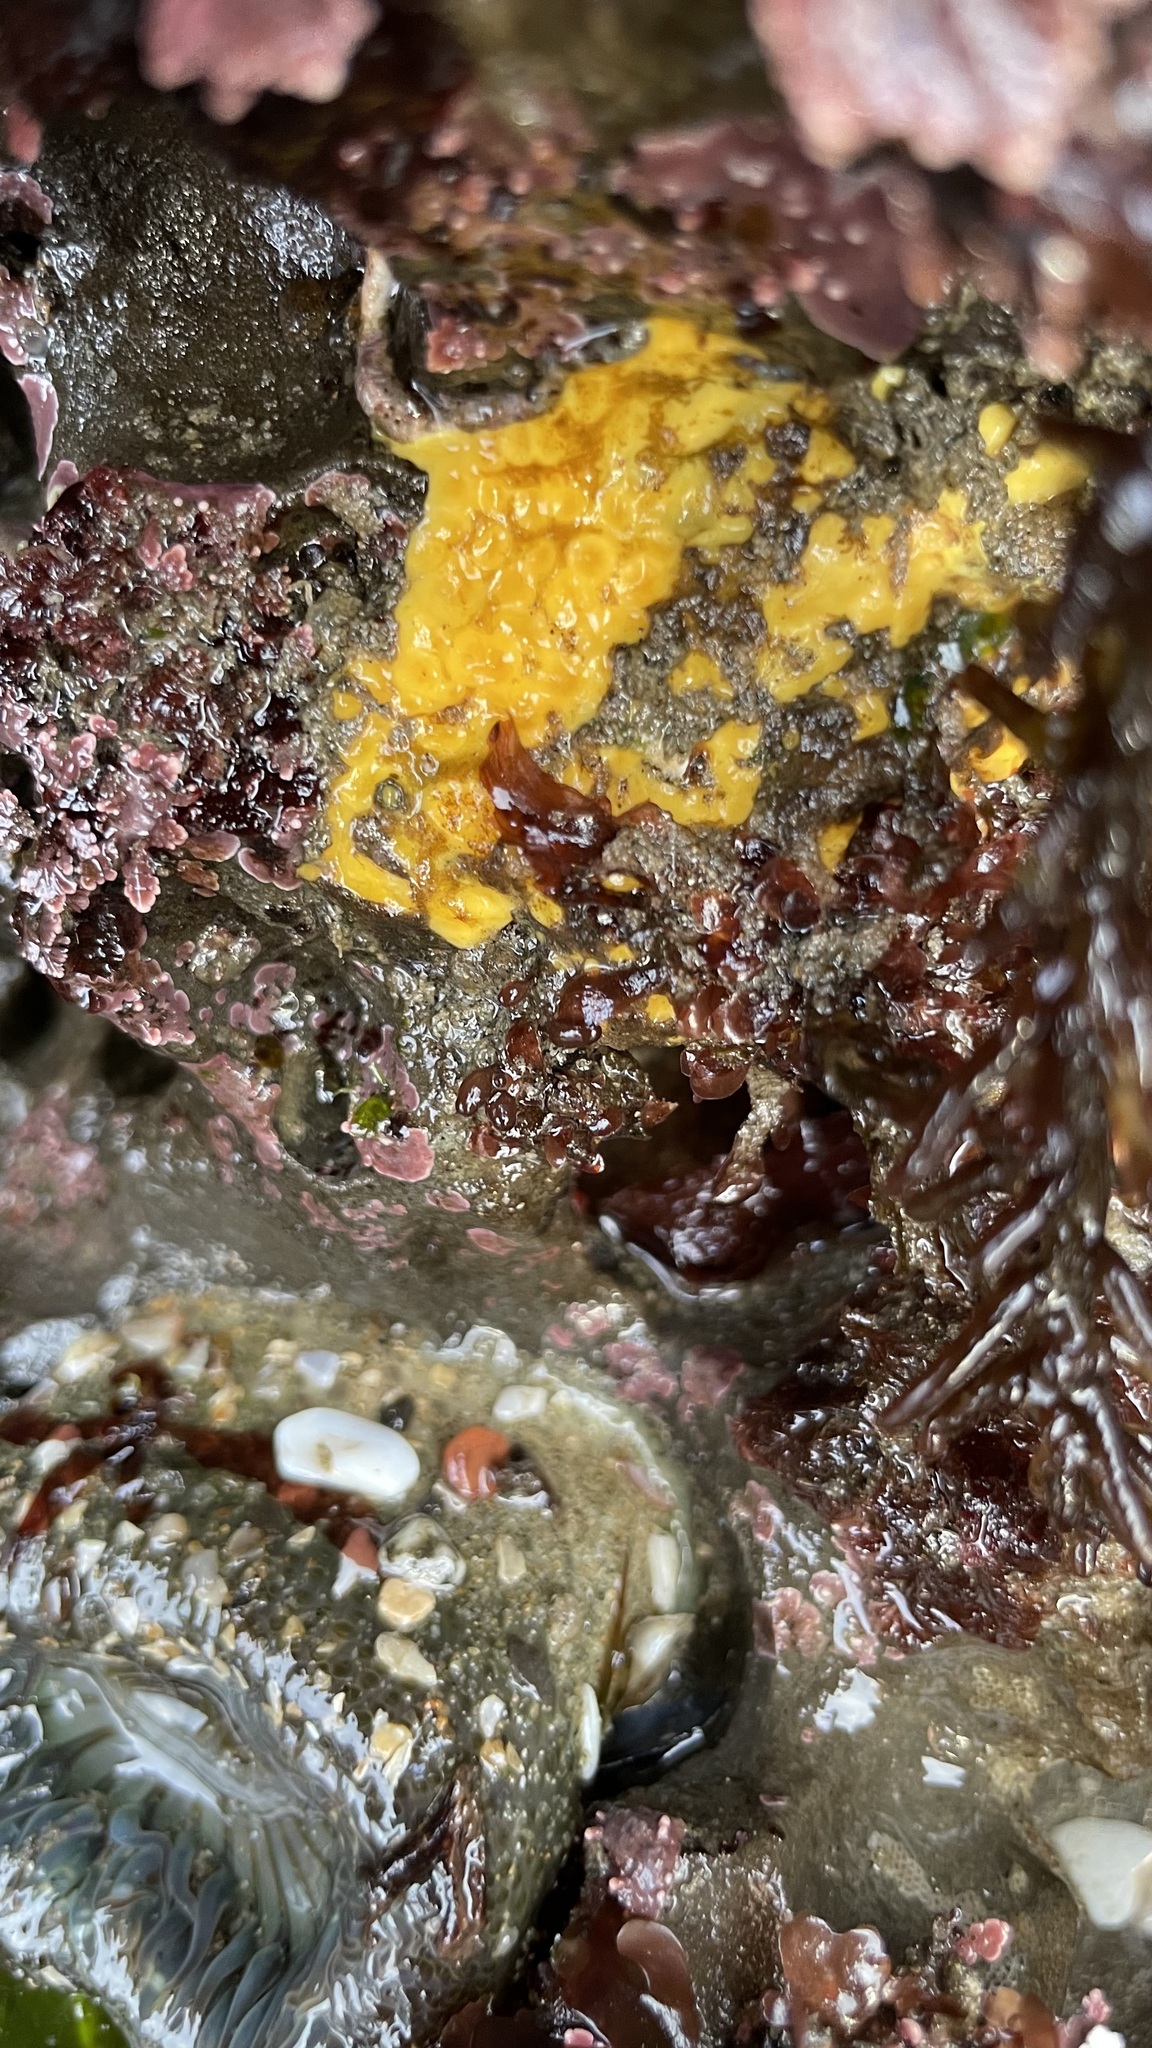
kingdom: Animalia
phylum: Porifera
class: Demospongiae
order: Clionaida
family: Clionaidae
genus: Cliona
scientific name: Cliona californiana
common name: California boring horny sponge
